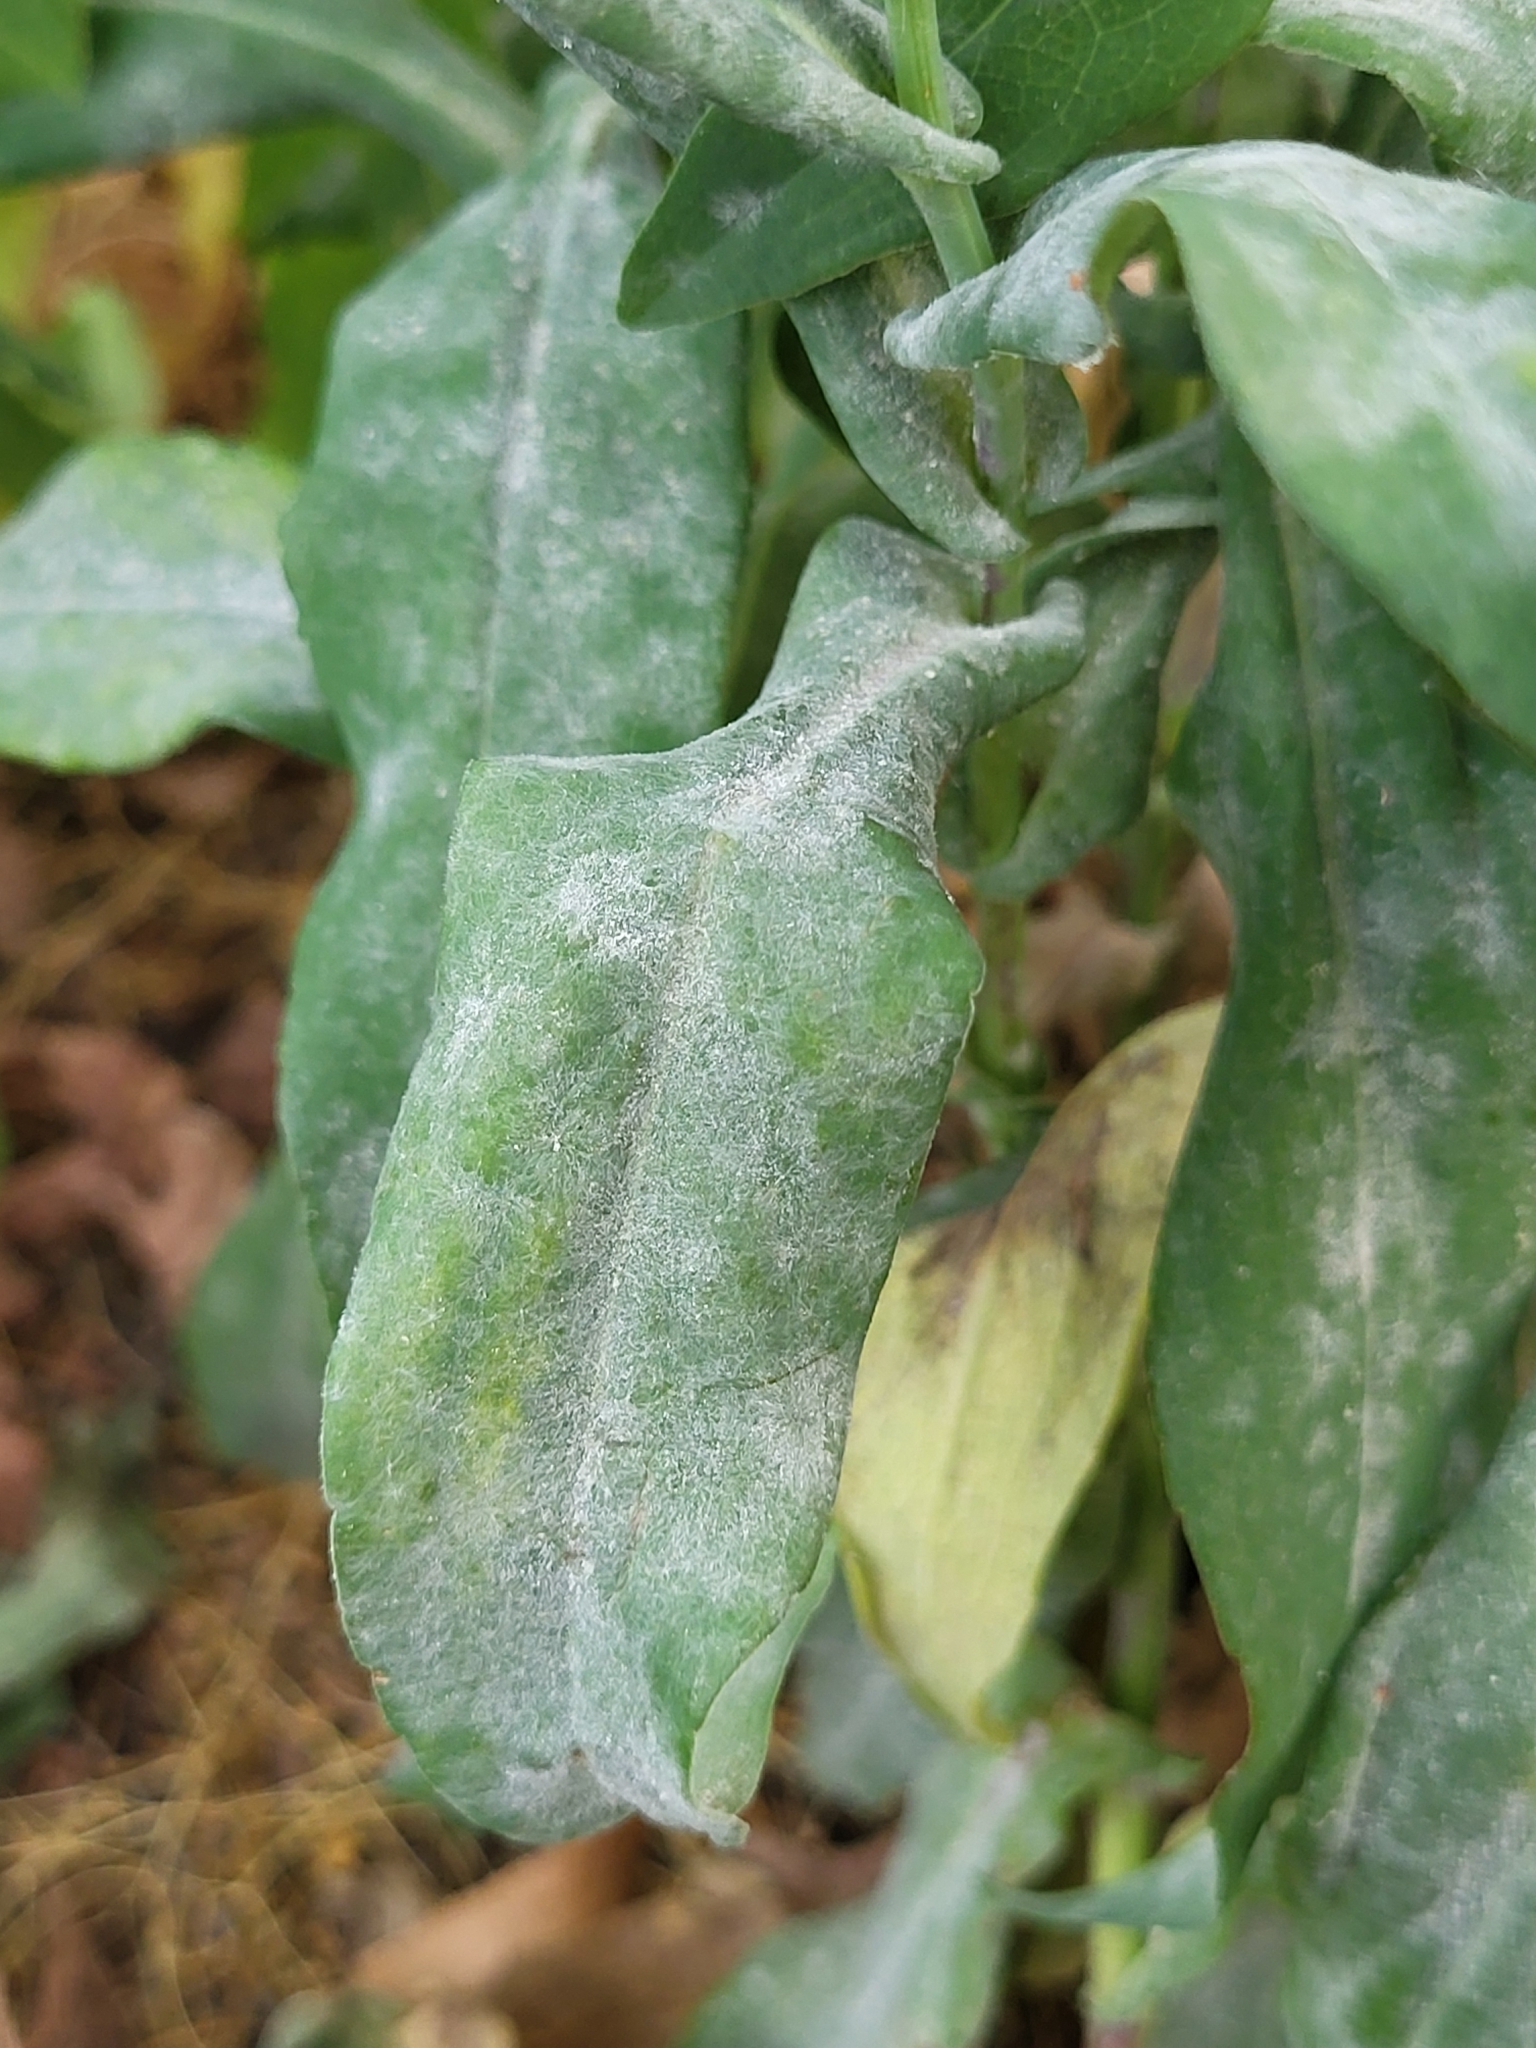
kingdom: Fungi
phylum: Ascomycota
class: Leotiomycetes
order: Helotiales
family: Erysiphaceae
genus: Golovinomyces
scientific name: Golovinomyces asterum
